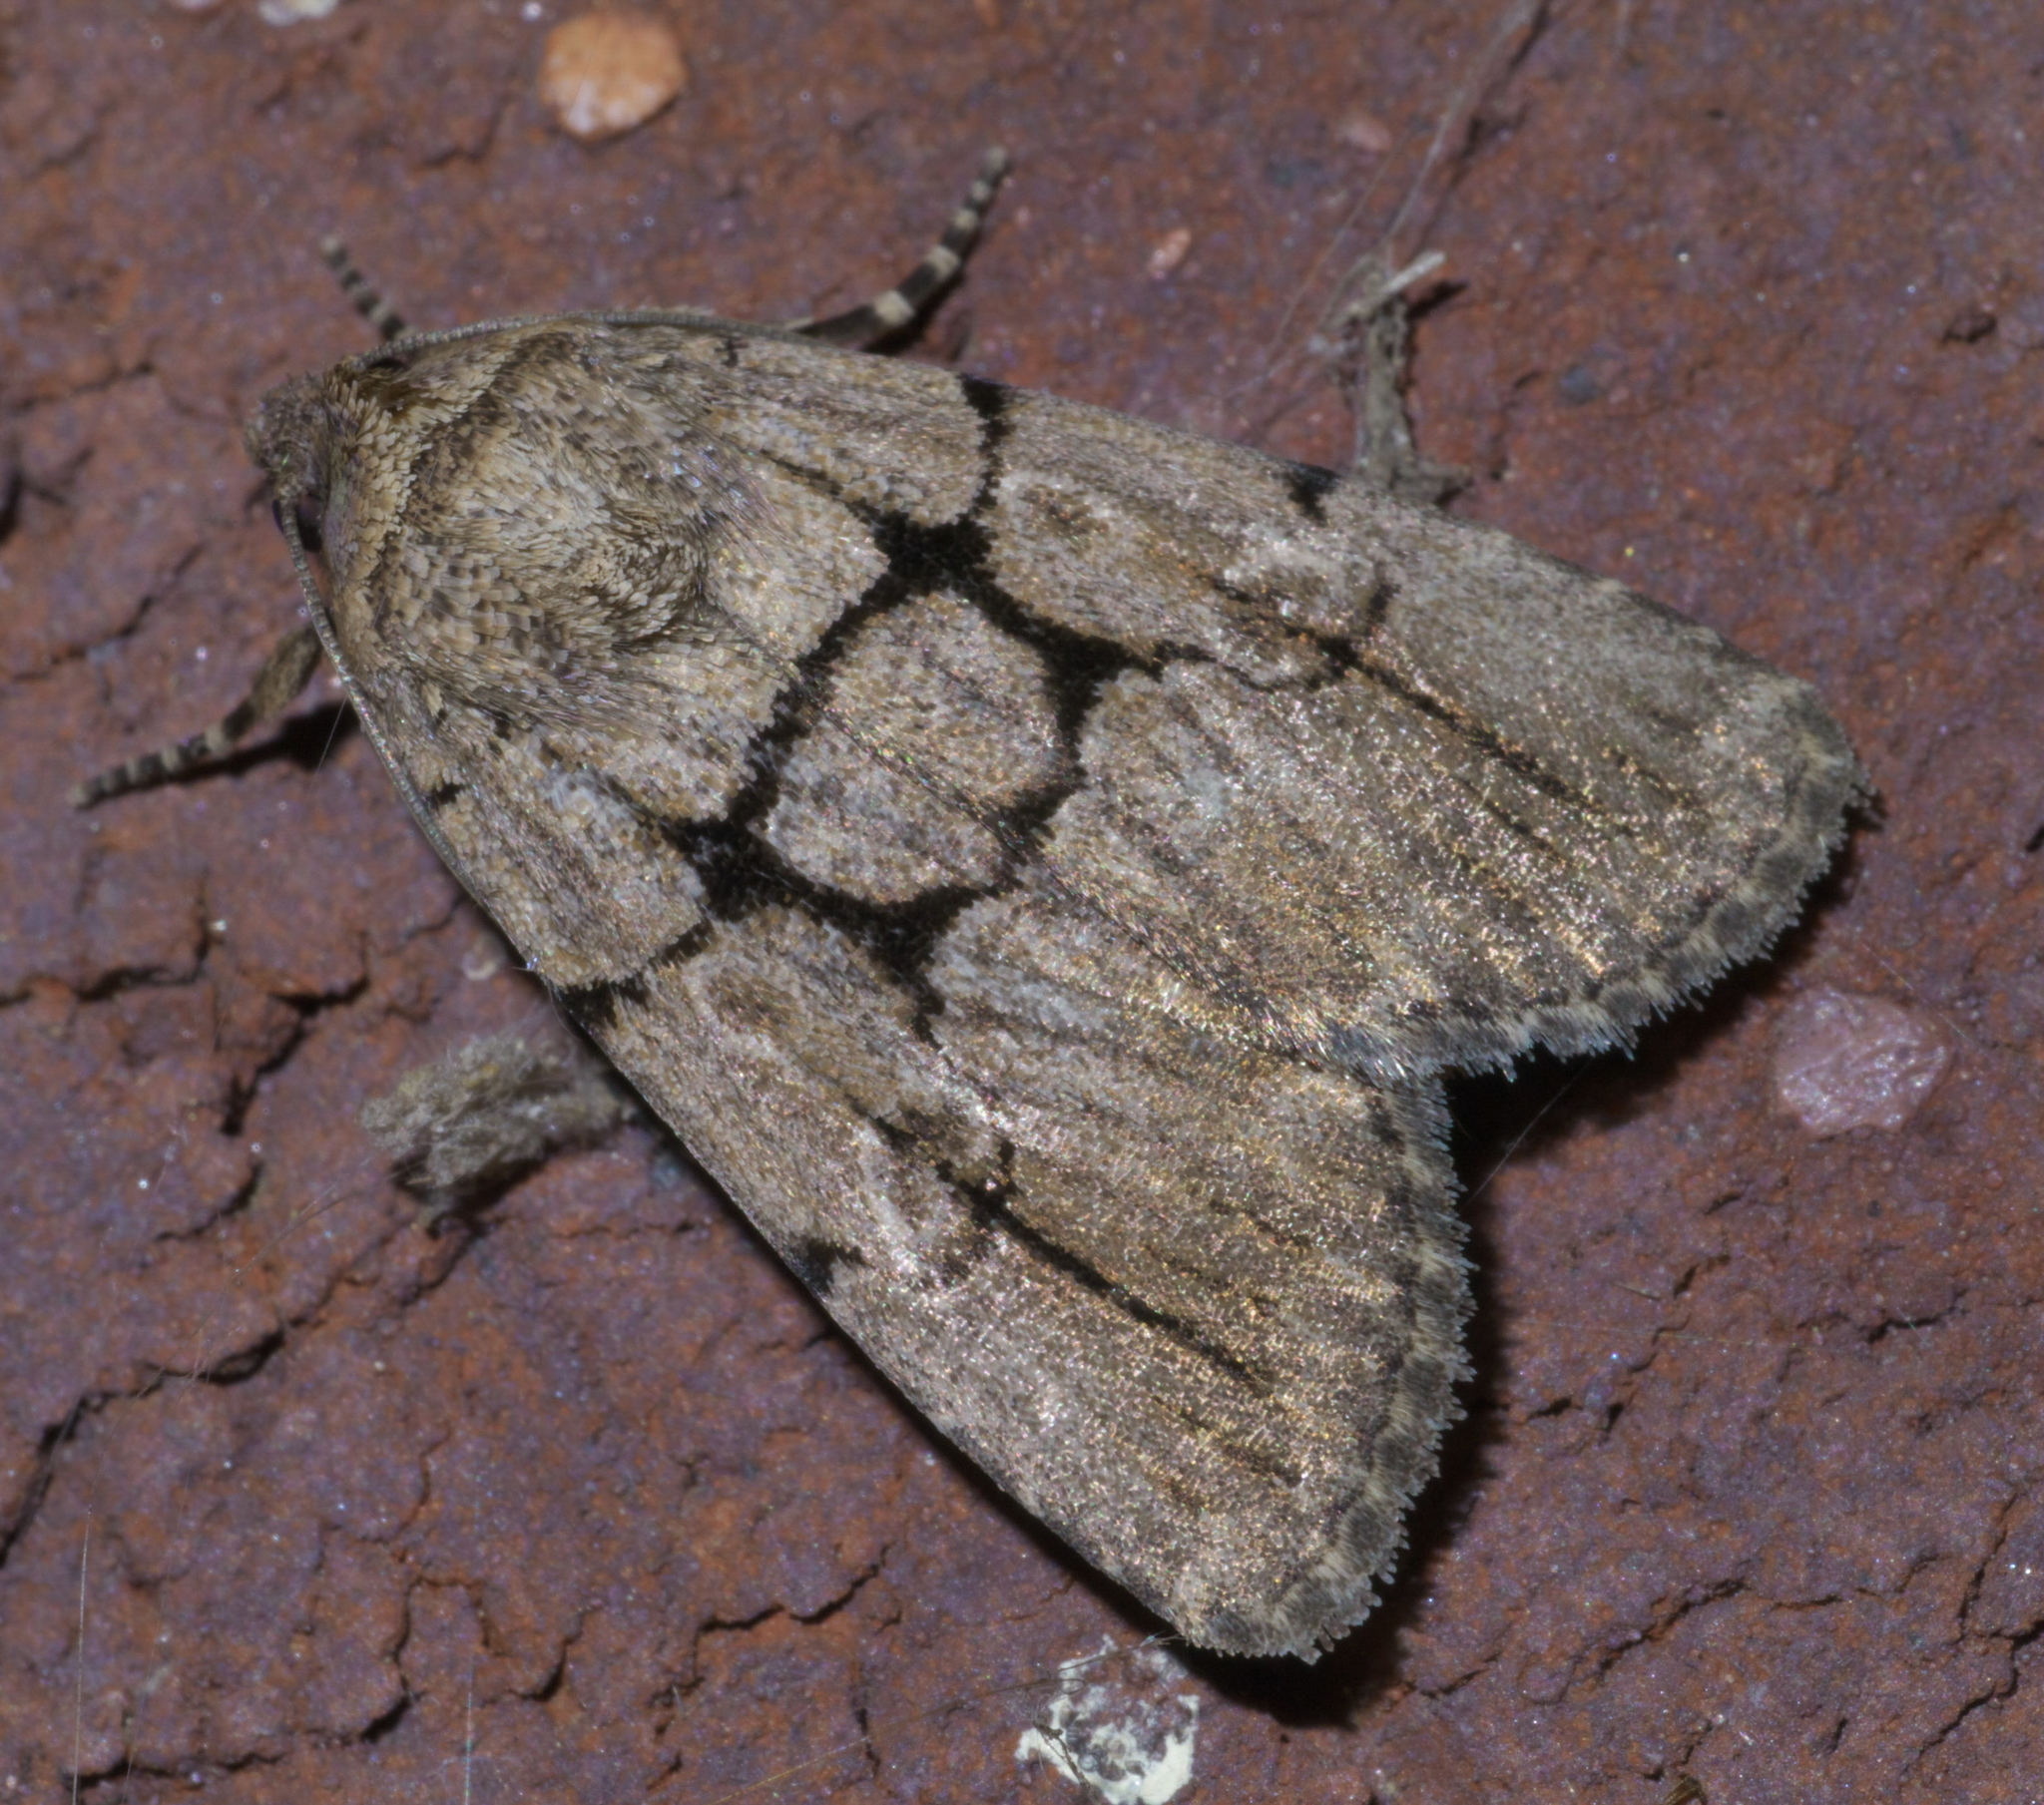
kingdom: Animalia
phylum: Arthropoda
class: Insecta
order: Lepidoptera
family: Noctuidae
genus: Sympistis
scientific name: Sympistis dinalda
